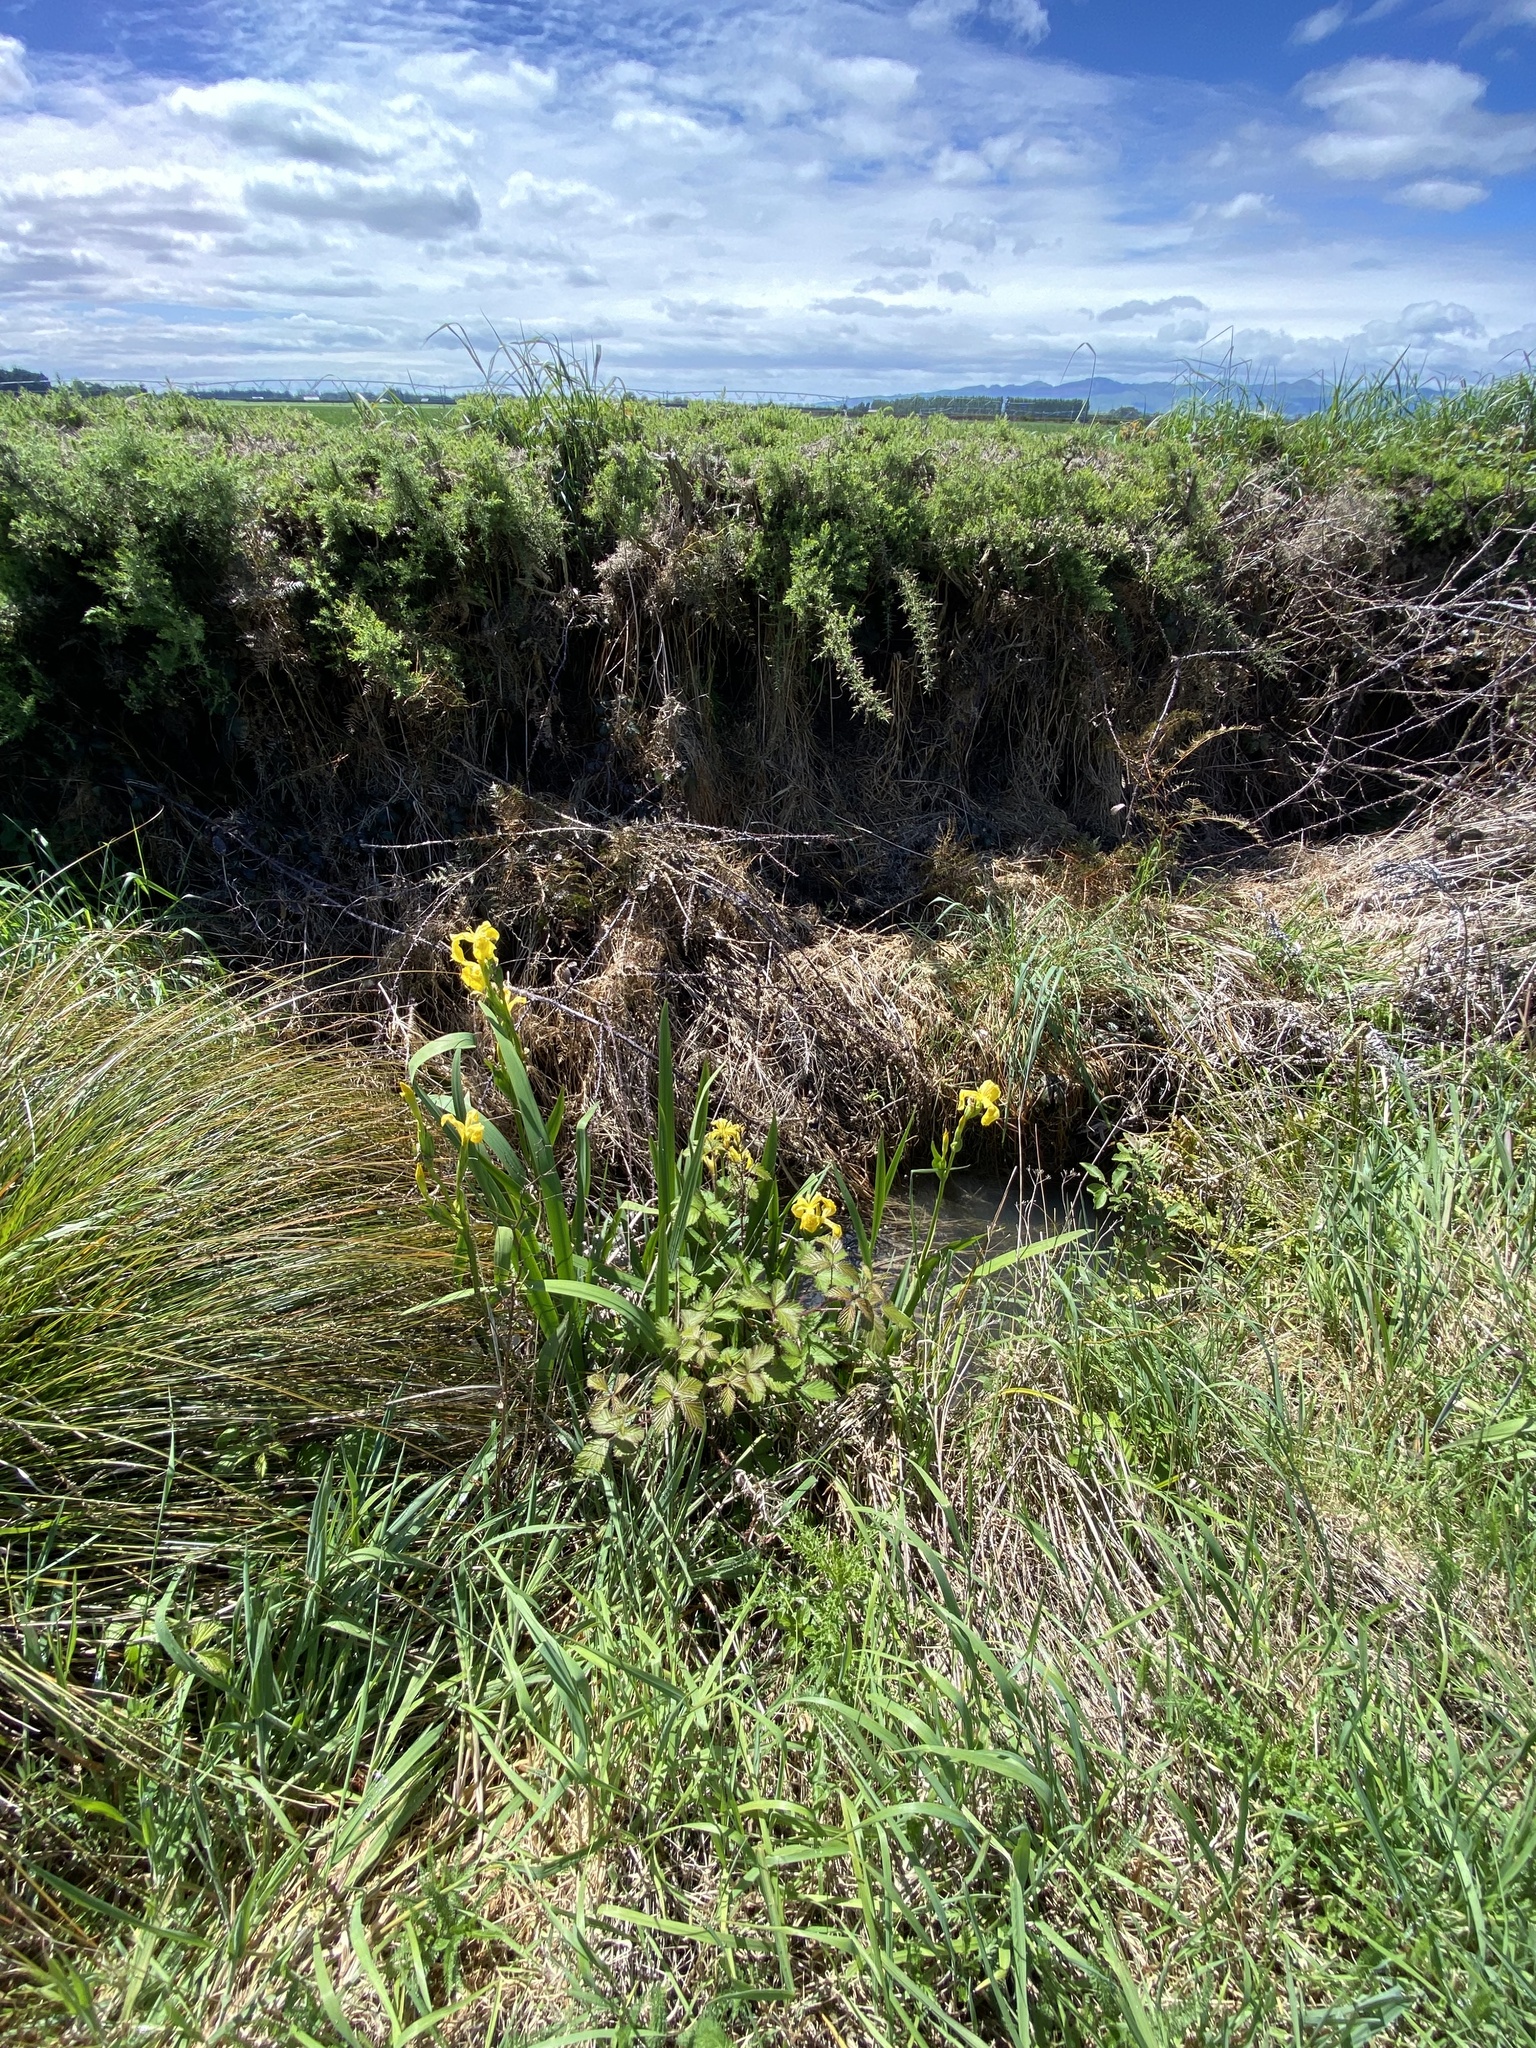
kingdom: Plantae
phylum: Tracheophyta
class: Liliopsida
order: Asparagales
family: Iridaceae
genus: Iris
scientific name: Iris pseudacorus
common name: Yellow flag
